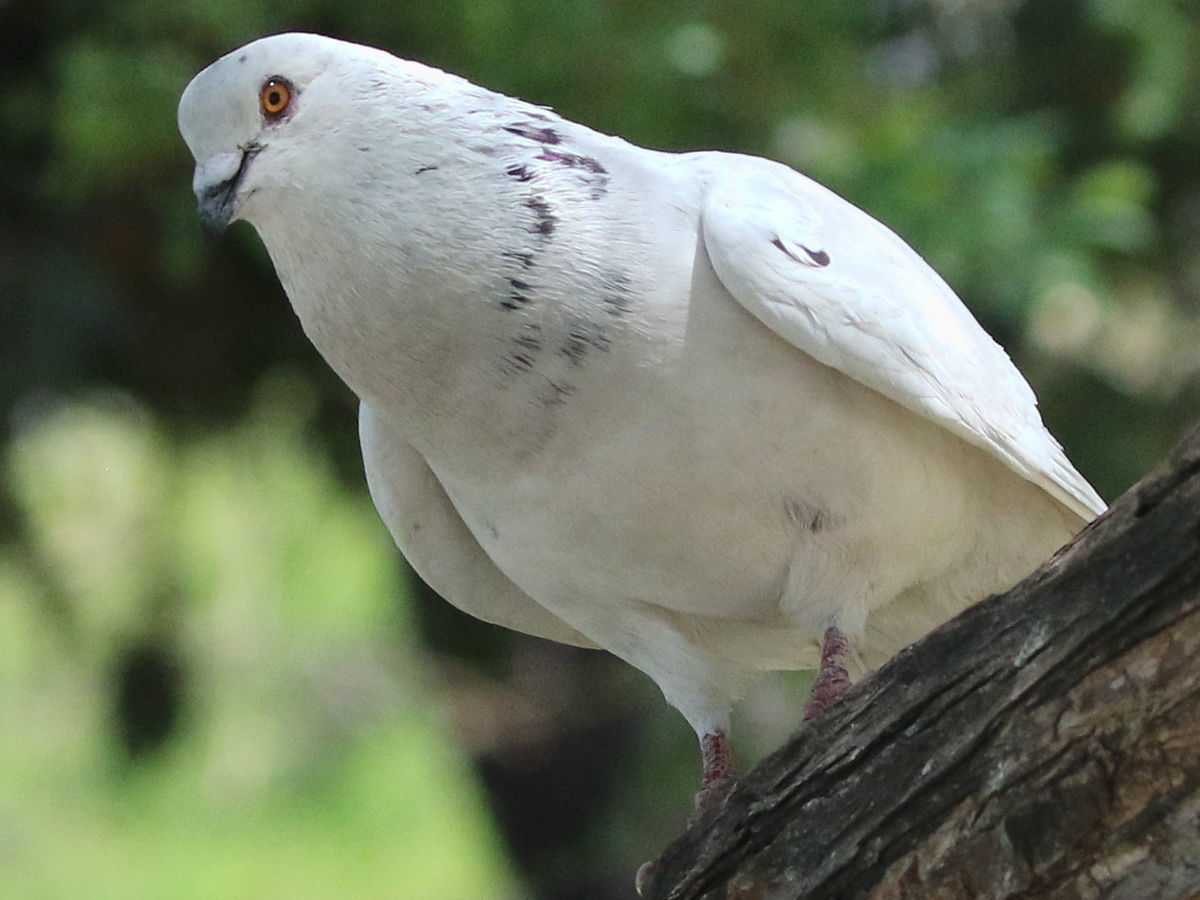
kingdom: Animalia
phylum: Chordata
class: Aves
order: Columbiformes
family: Columbidae
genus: Columba
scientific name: Columba livia
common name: Rock pigeon
